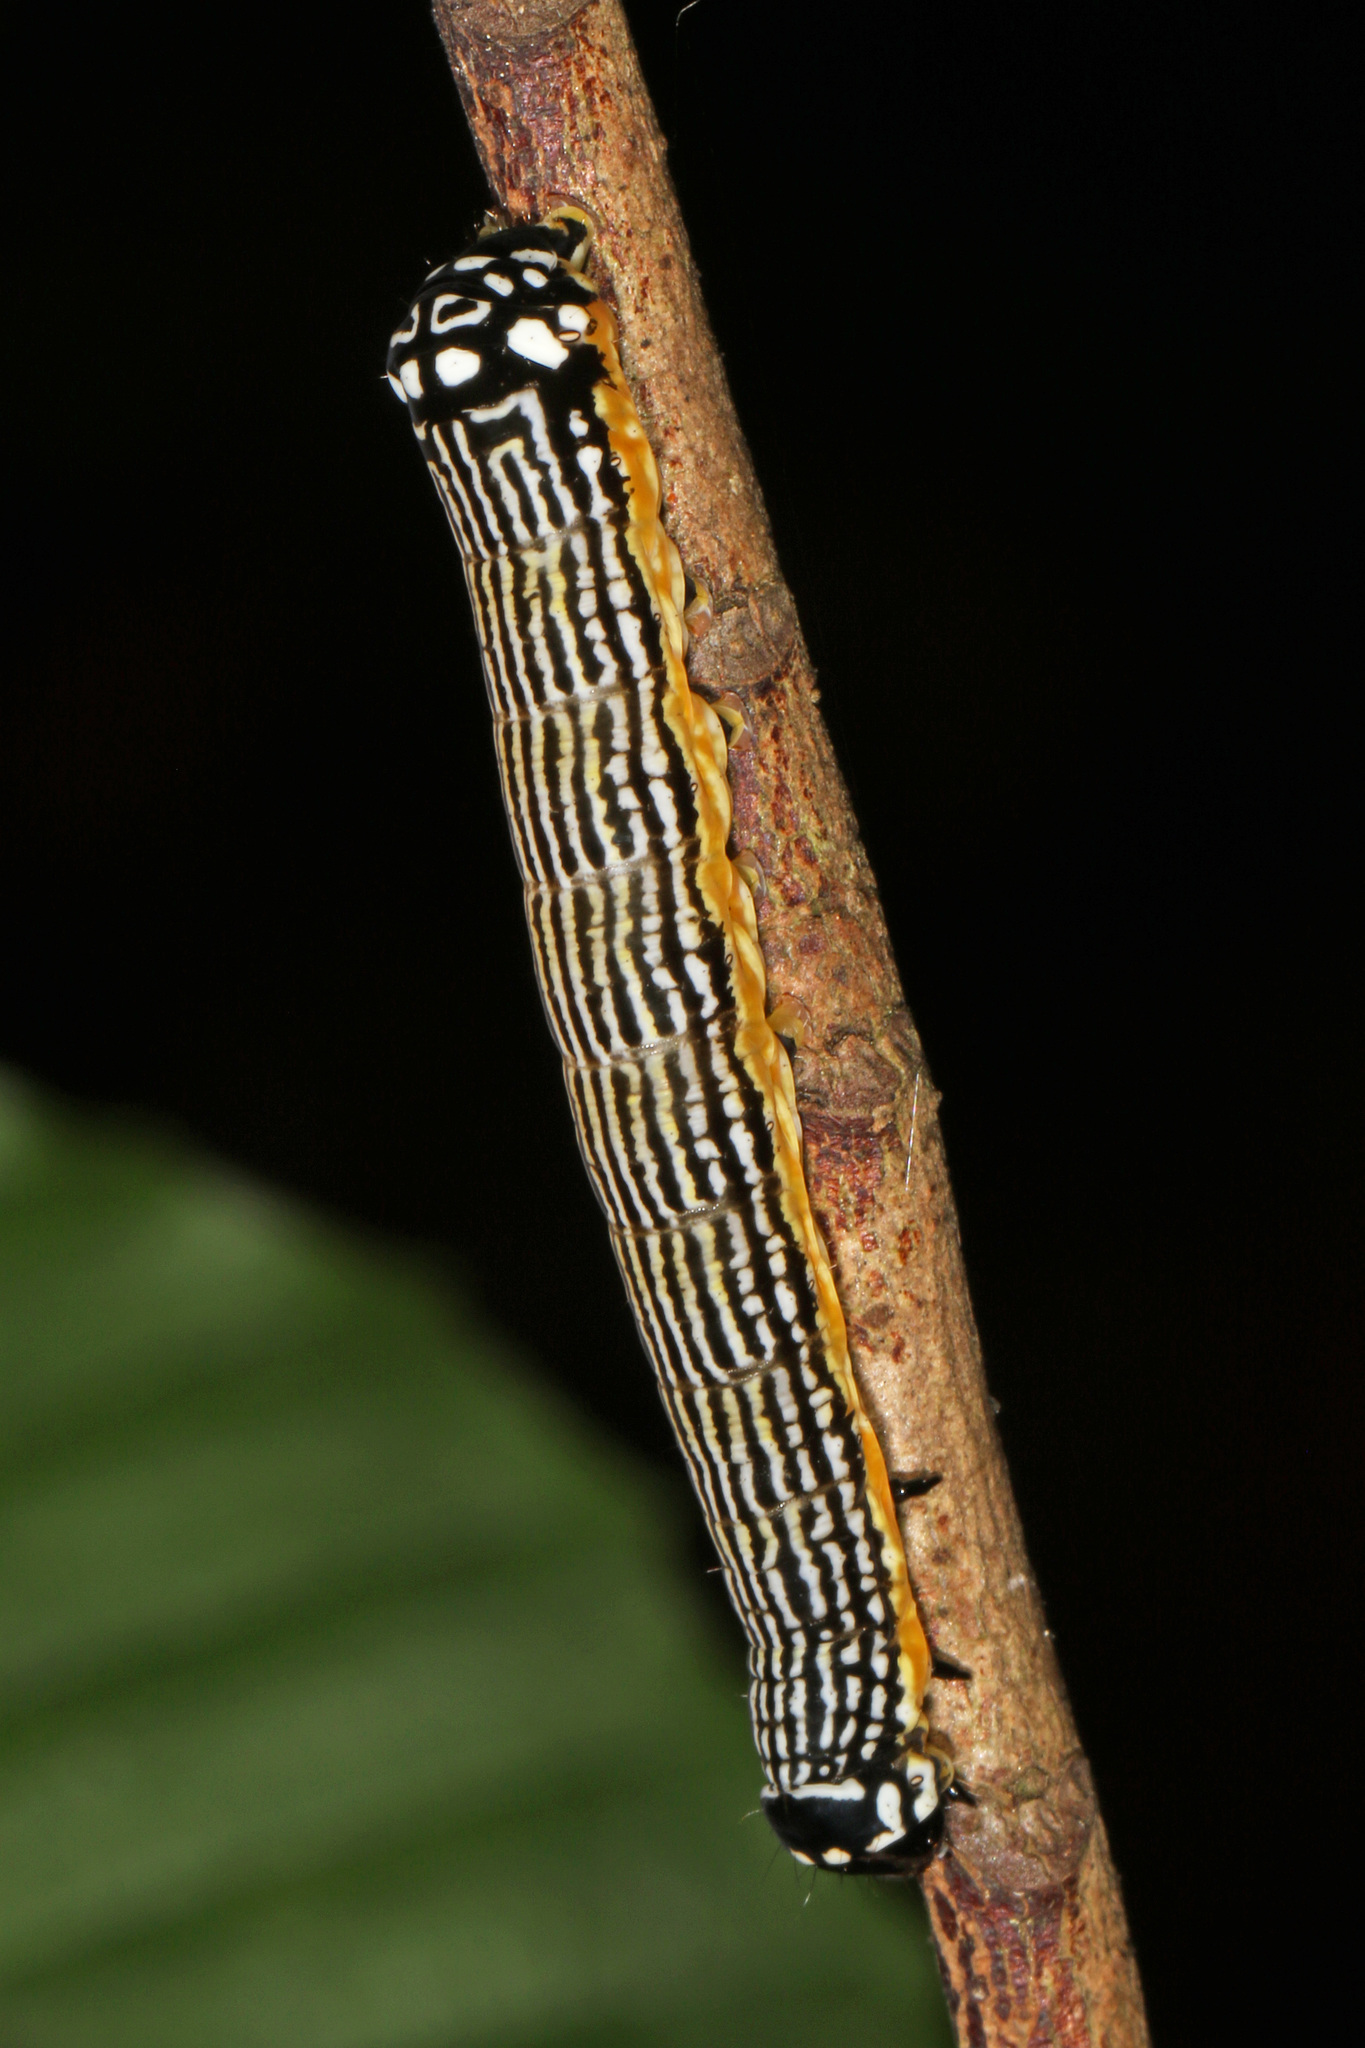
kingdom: Animalia
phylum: Arthropoda
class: Insecta
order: Lepidoptera
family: Noctuidae
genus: Phosphila
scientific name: Phosphila turbulenta
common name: Turbulent phosphila moth
